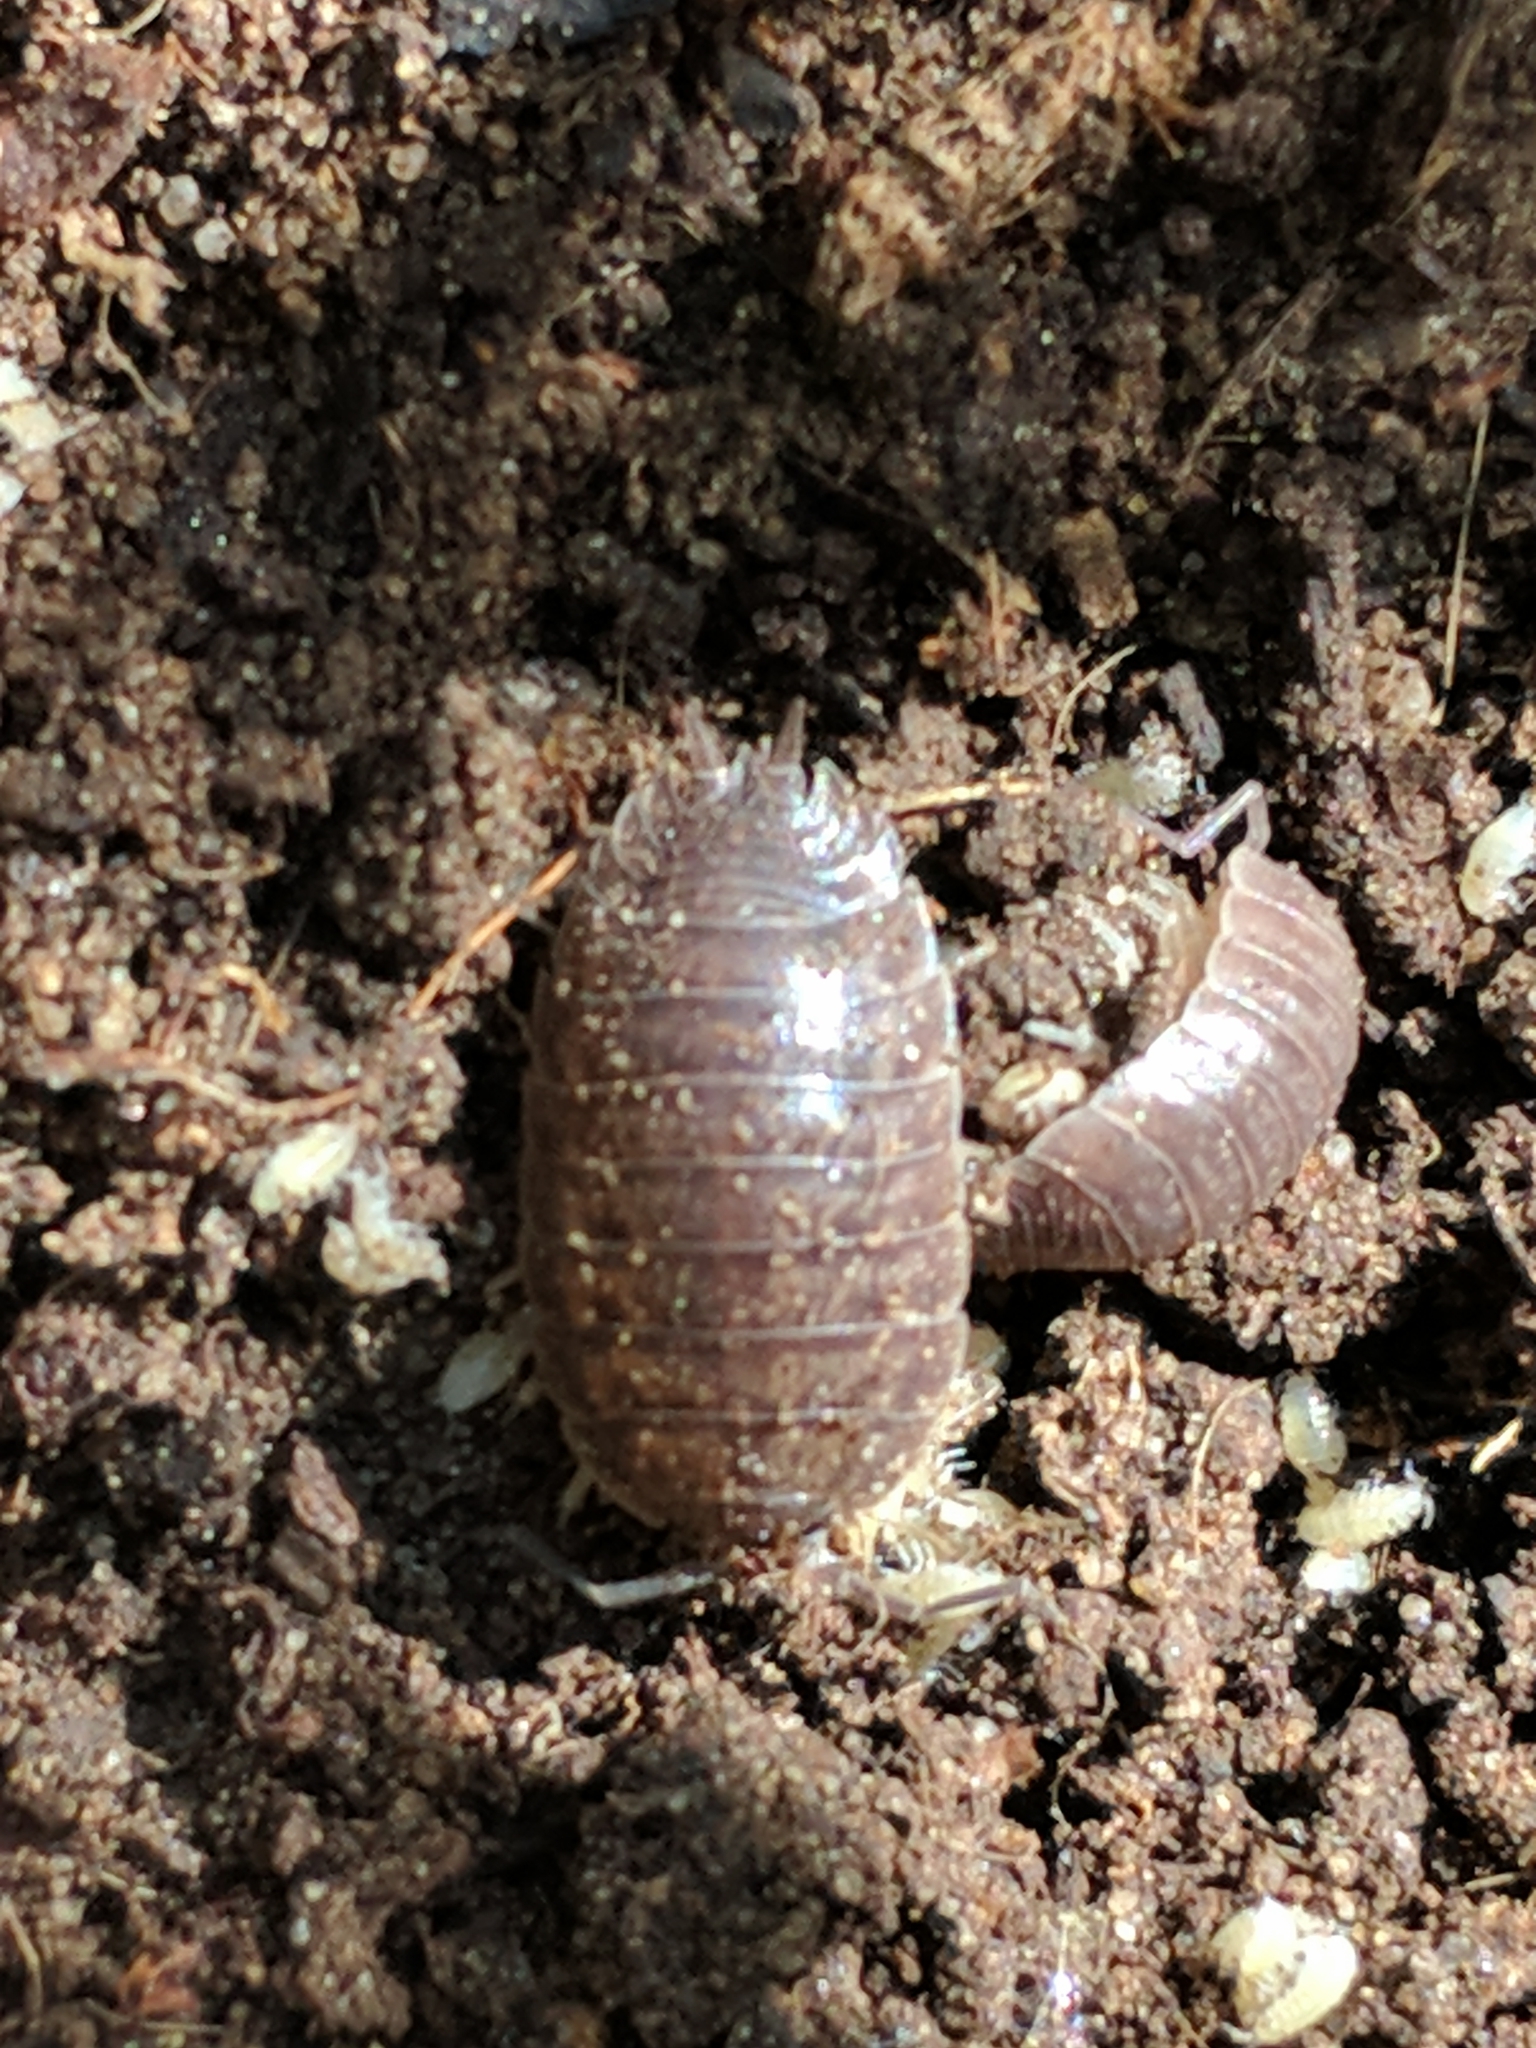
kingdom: Animalia
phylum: Arthropoda
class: Malacostraca
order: Isopoda
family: Porcellionidae
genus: Porcellio
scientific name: Porcellio laevis
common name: Swift woodlouse
